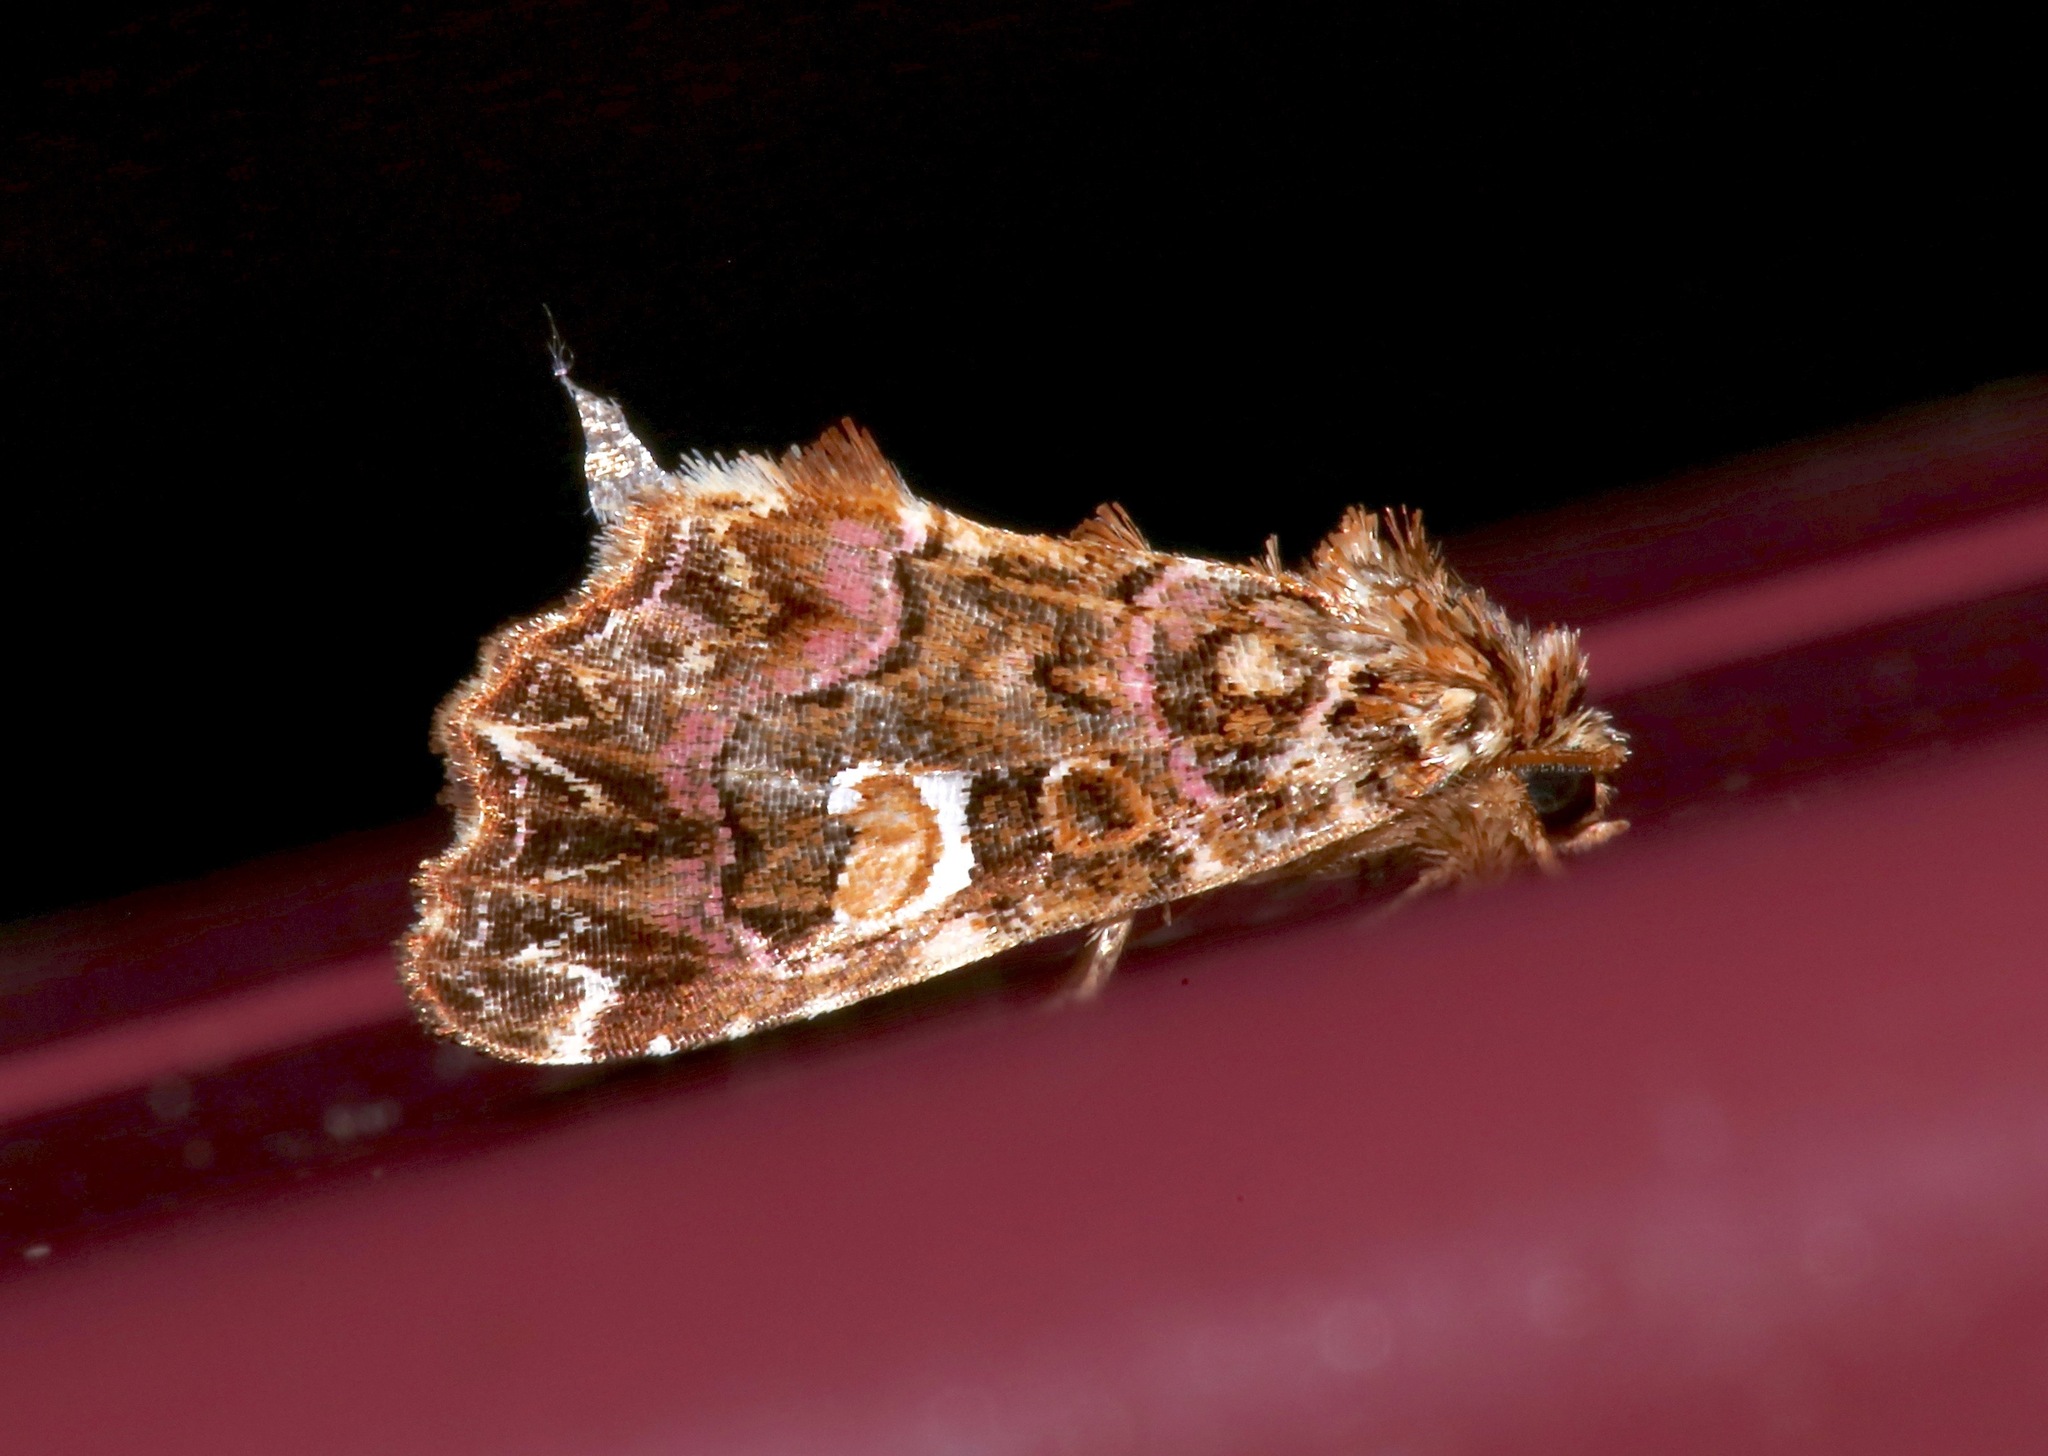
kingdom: Animalia
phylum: Arthropoda
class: Insecta
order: Lepidoptera
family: Noctuidae
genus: Callopistria
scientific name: Callopistria mollissima
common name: Pink-shaded fern moth
